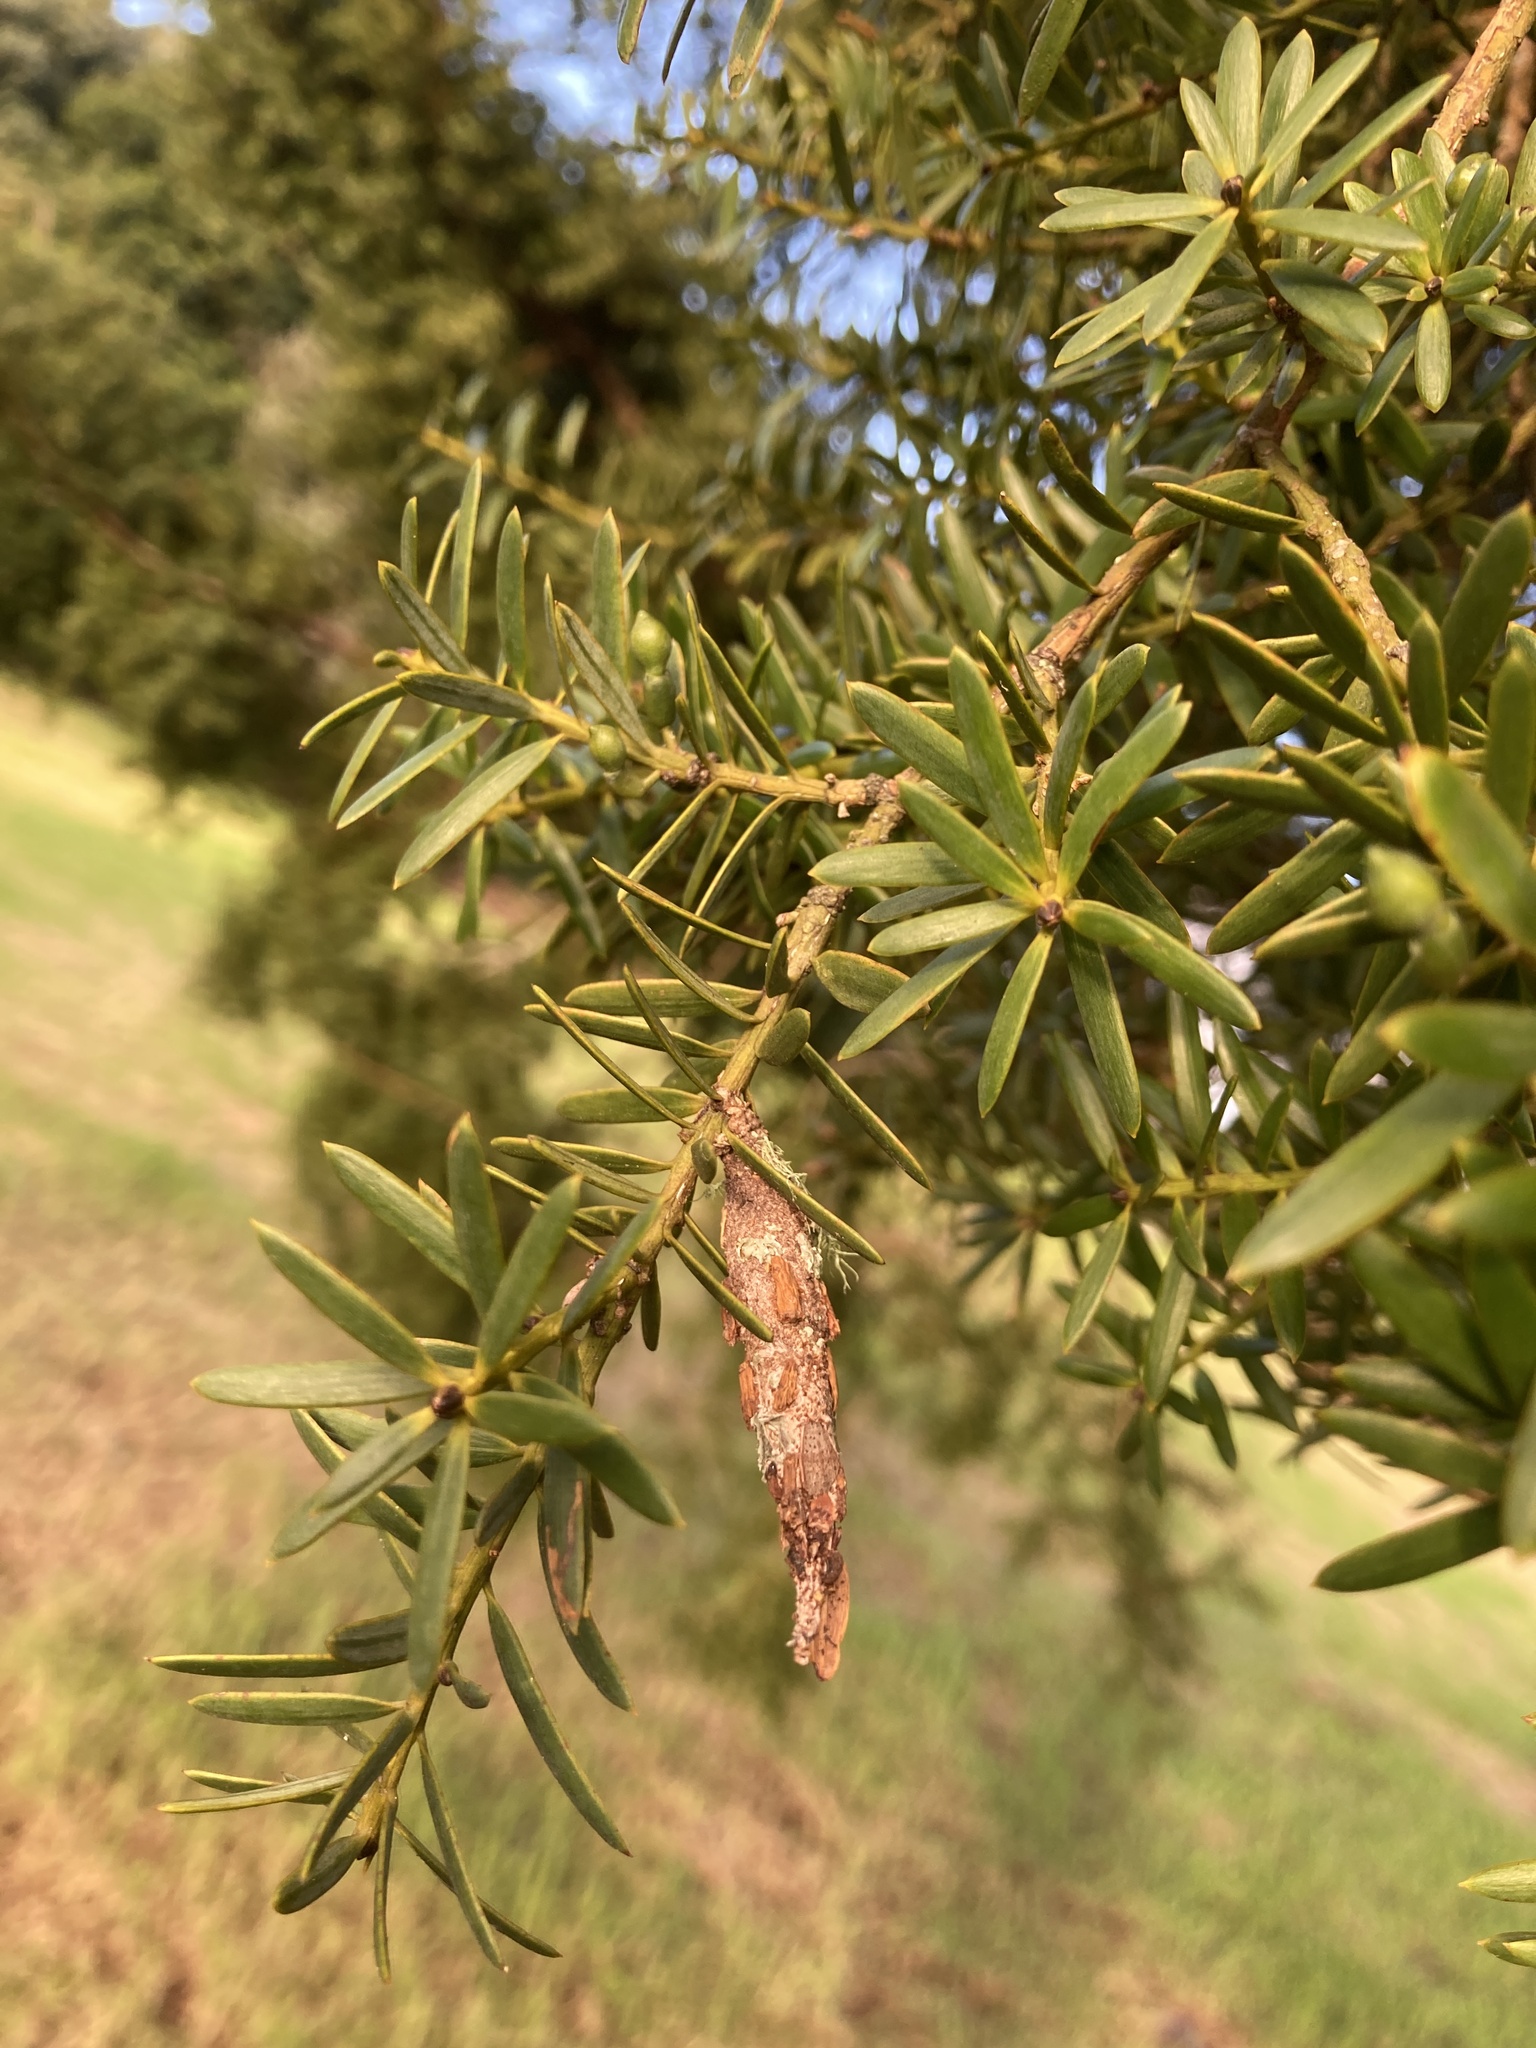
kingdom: Animalia
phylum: Arthropoda
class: Insecta
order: Lepidoptera
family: Psychidae
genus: Liothula
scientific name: Liothula omnivora
